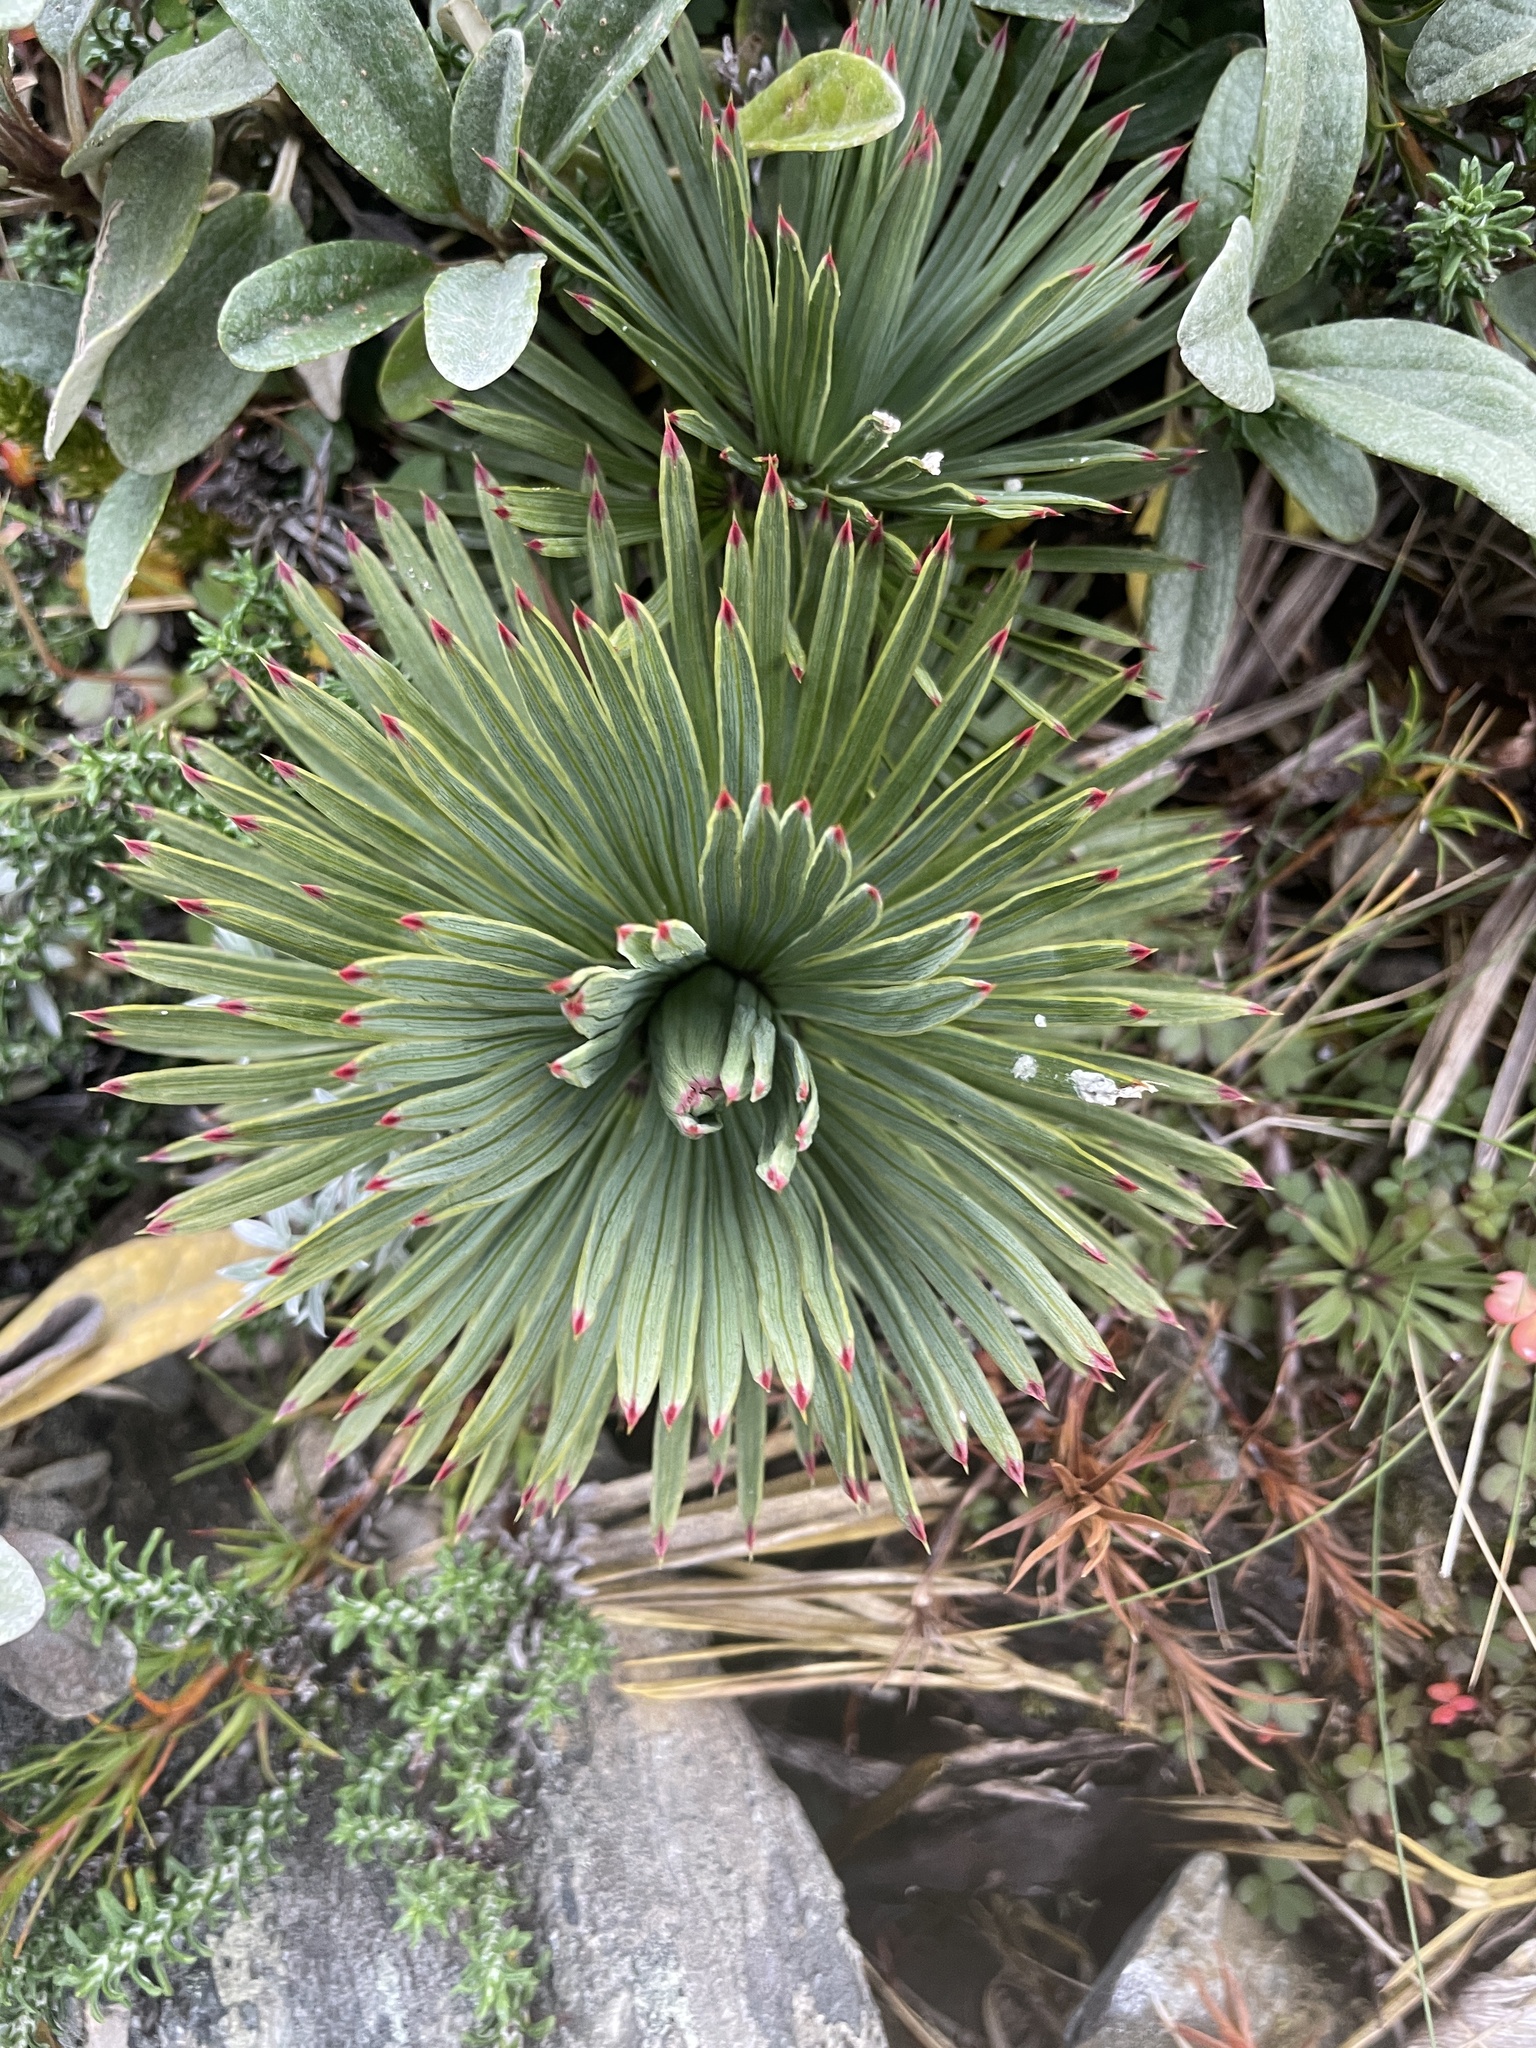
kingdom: Plantae
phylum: Tracheophyta
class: Magnoliopsida
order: Apiales
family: Apiaceae
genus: Aciphylla
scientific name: Aciphylla spedenii
